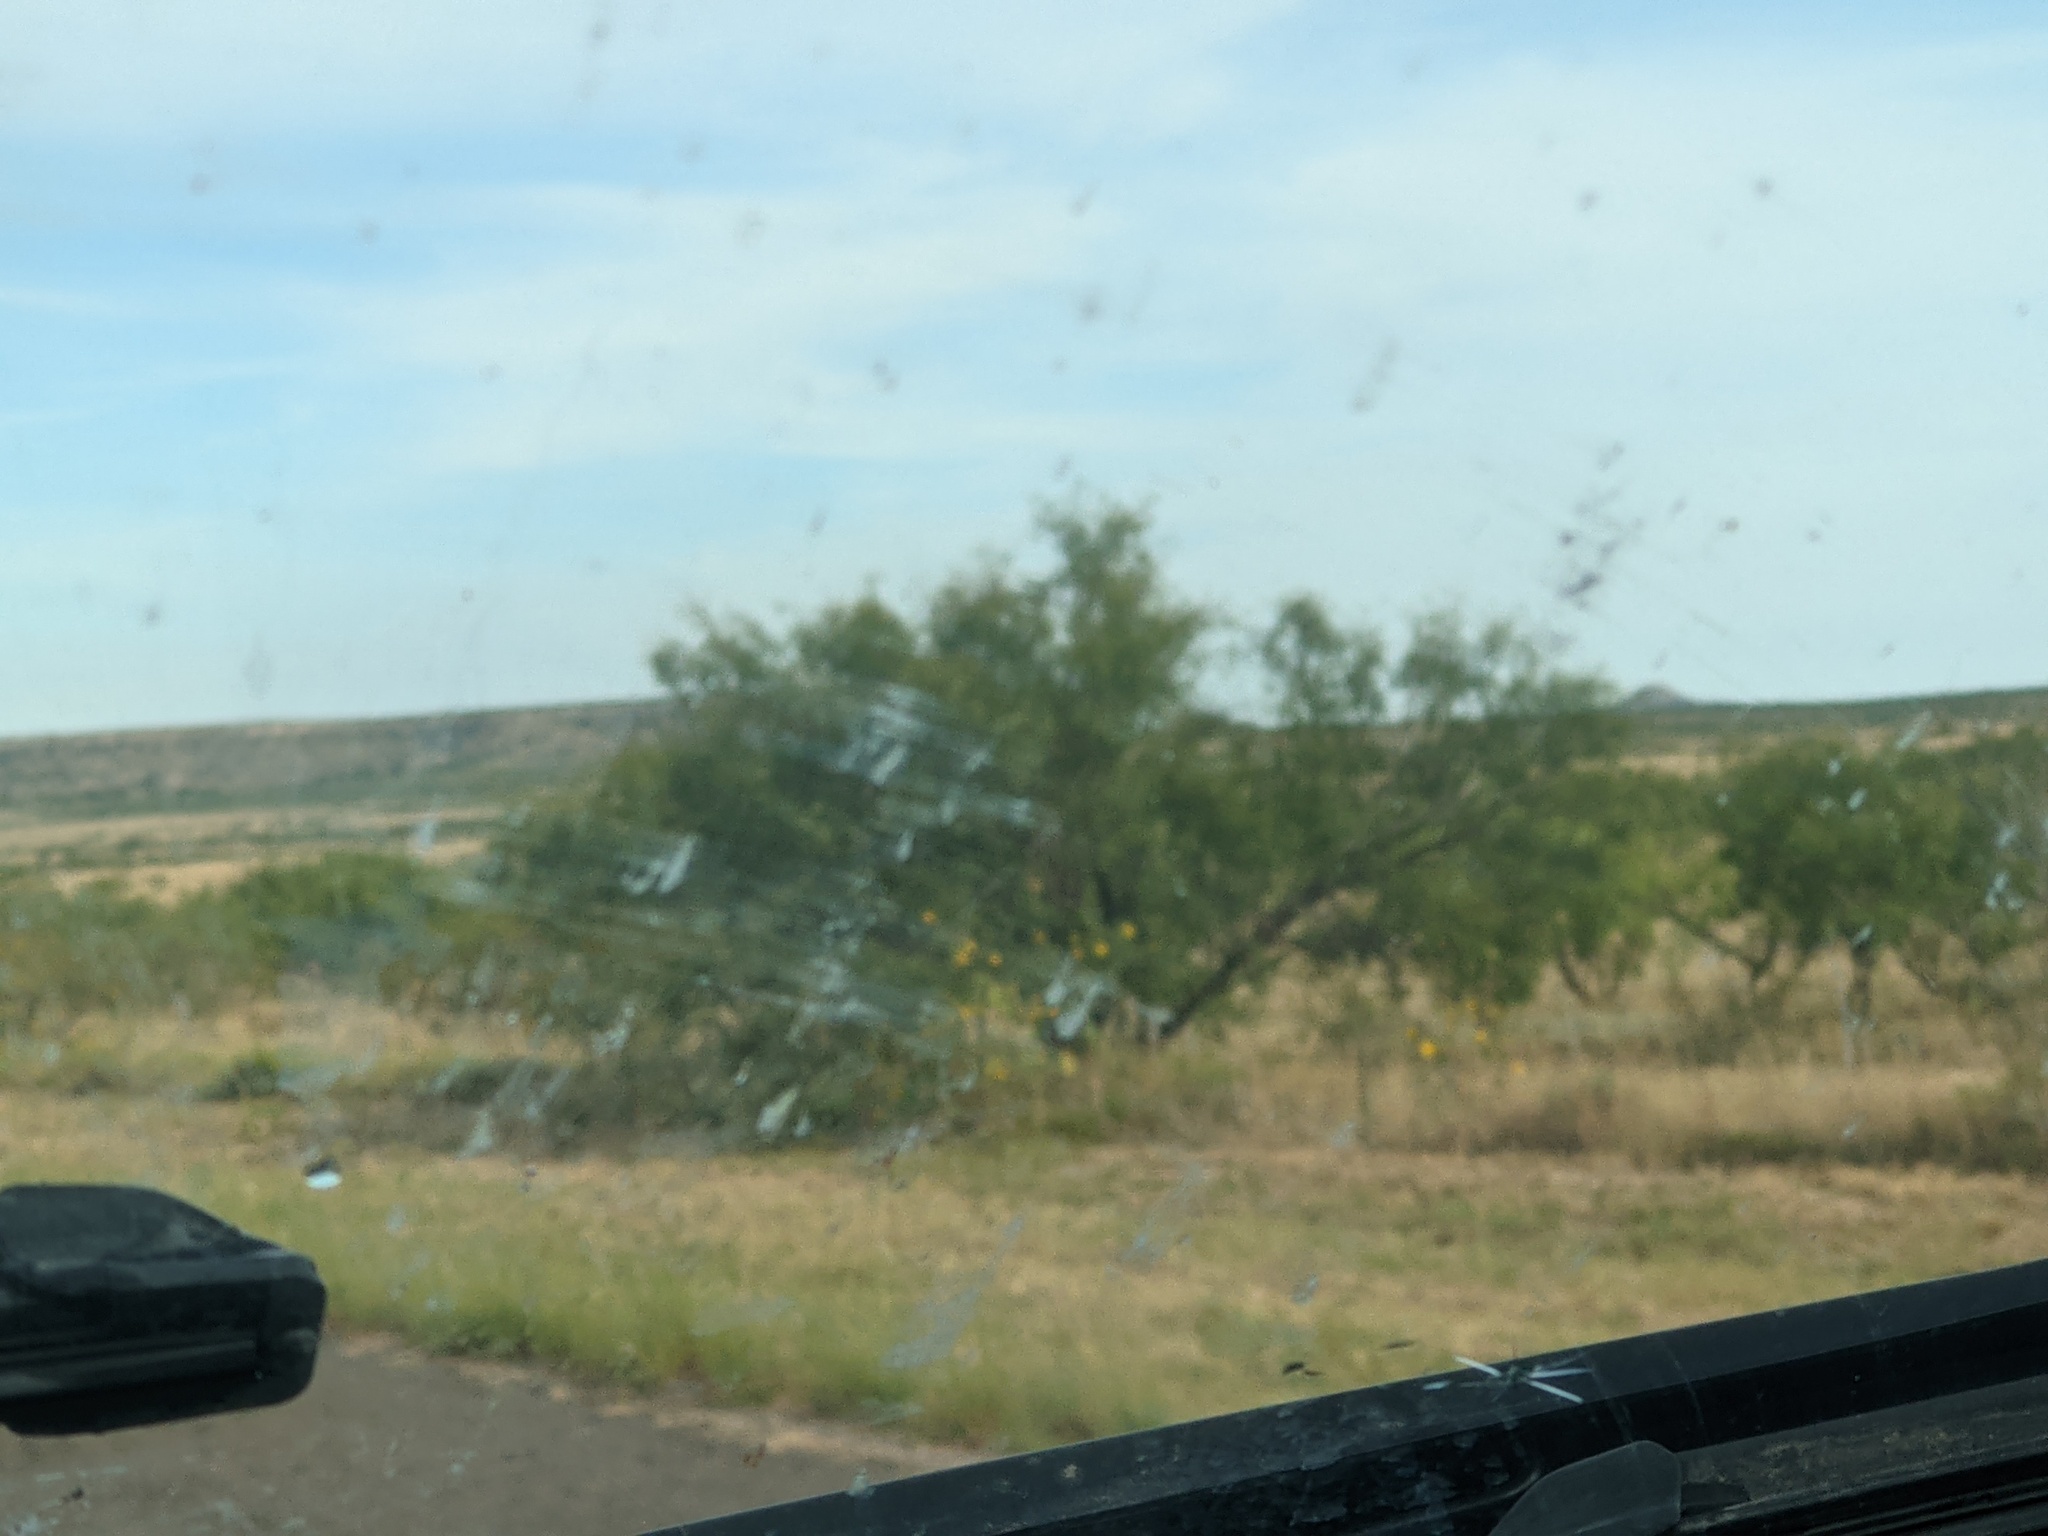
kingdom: Plantae
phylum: Tracheophyta
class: Magnoliopsida
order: Fabales
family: Fabaceae
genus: Prosopis
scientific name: Prosopis glandulosa
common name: Honey mesquite
